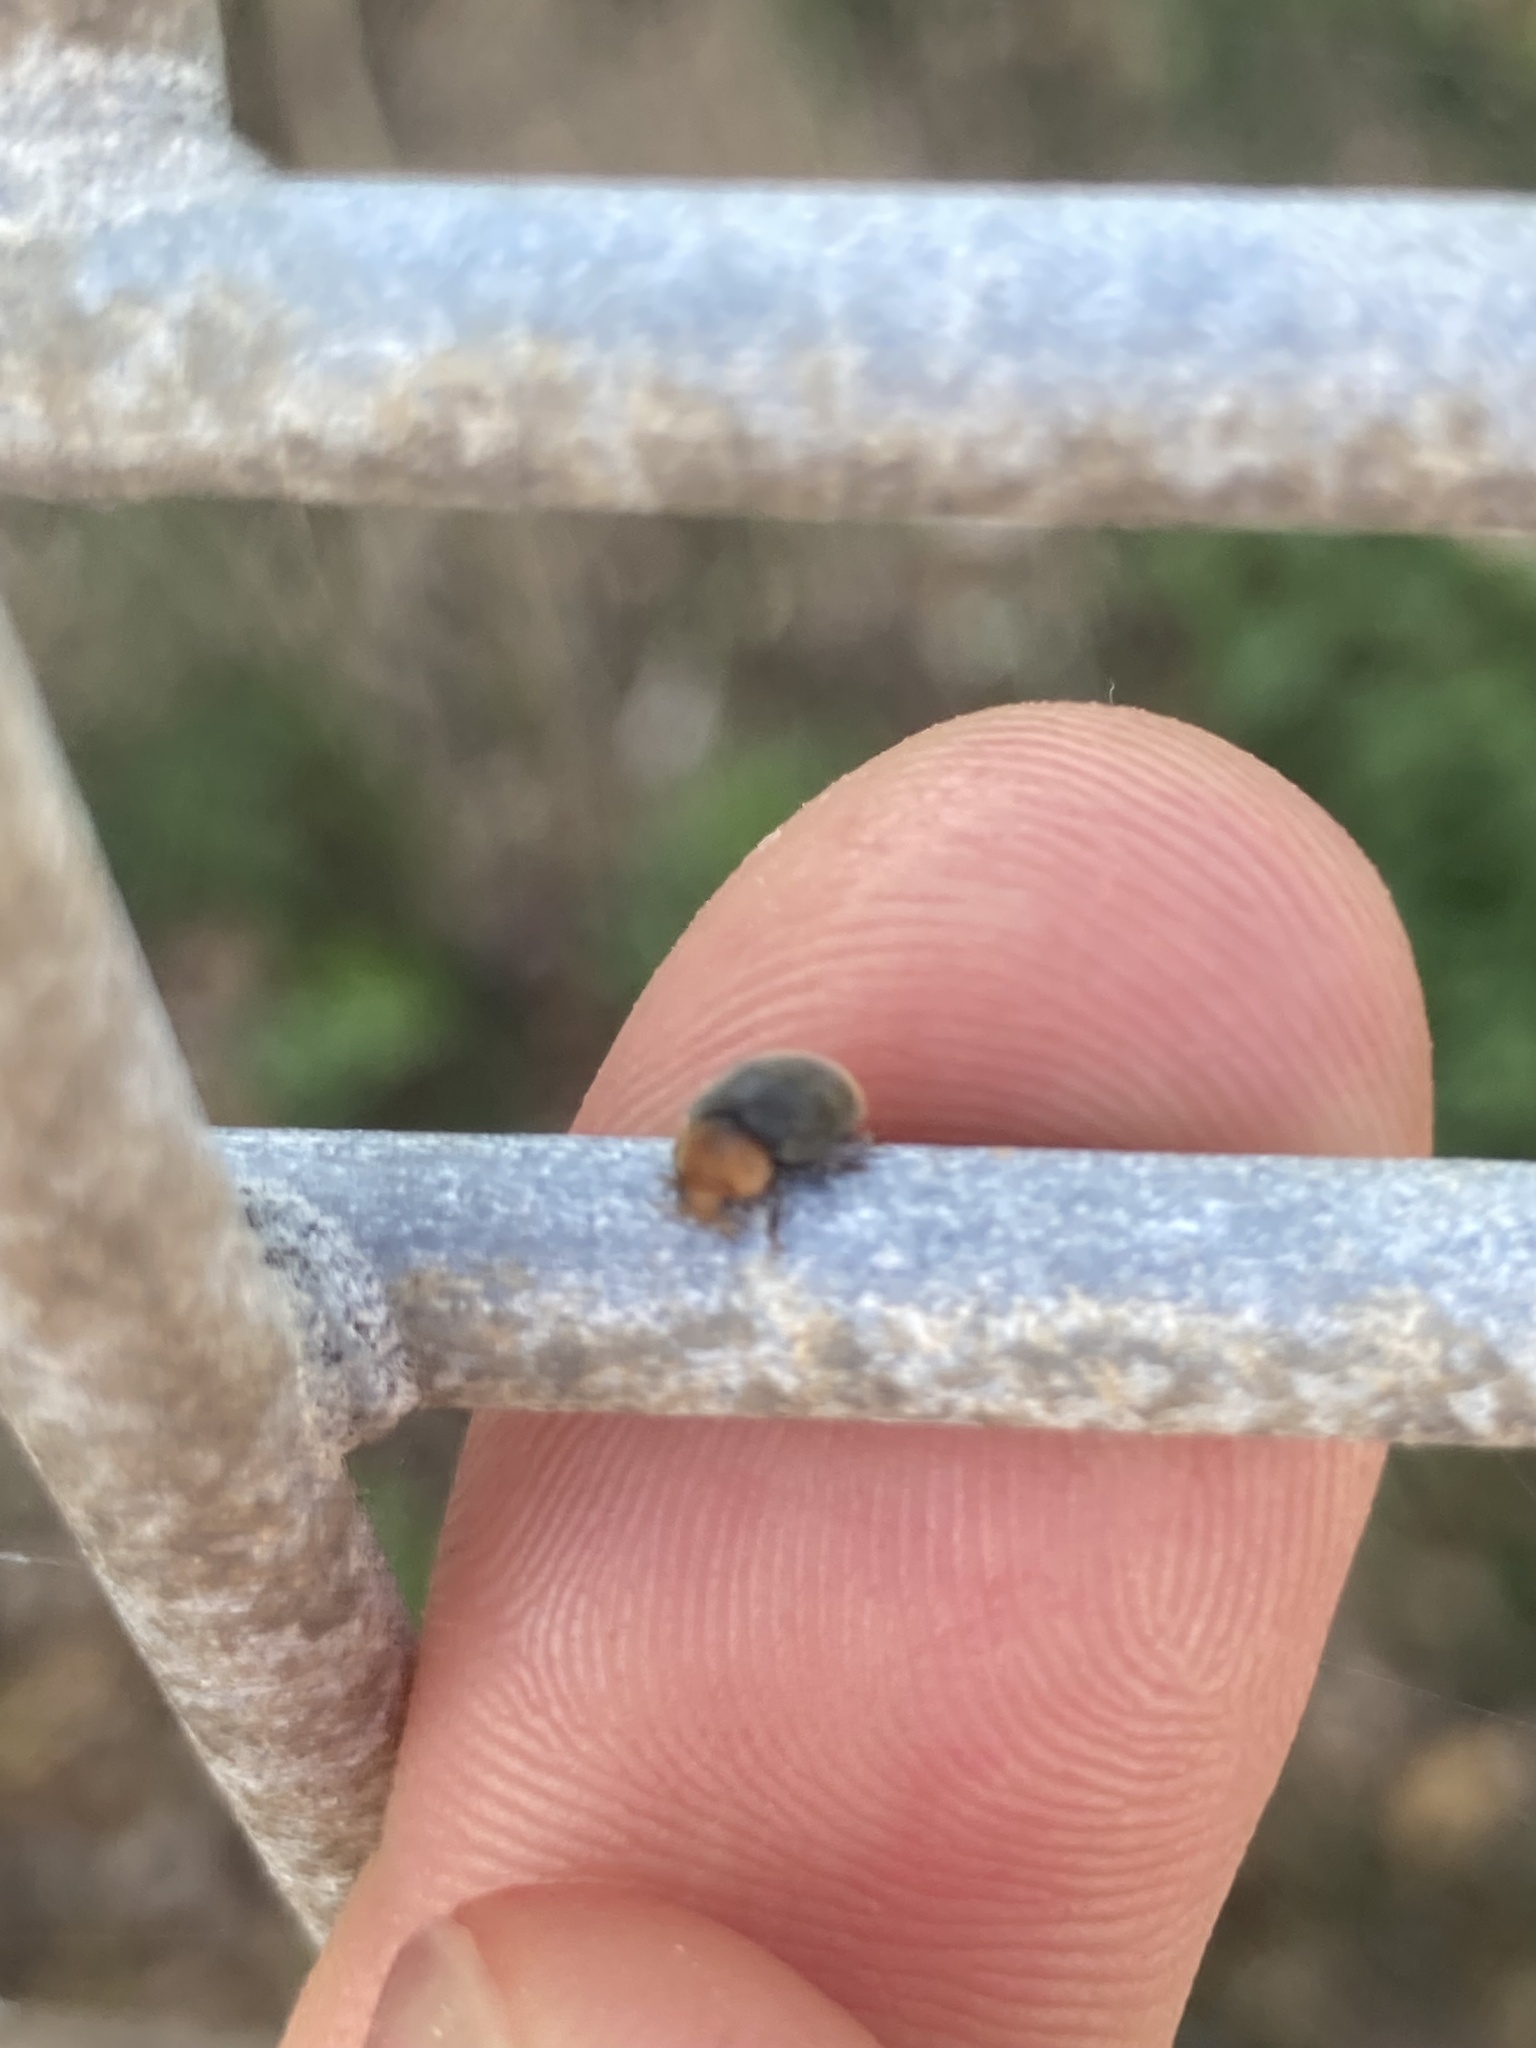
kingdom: Animalia
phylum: Arthropoda
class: Insecta
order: Coleoptera
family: Coccinellidae
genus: Cryptolaemus
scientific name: Cryptolaemus montrouzieri
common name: Mealybug destroyer
